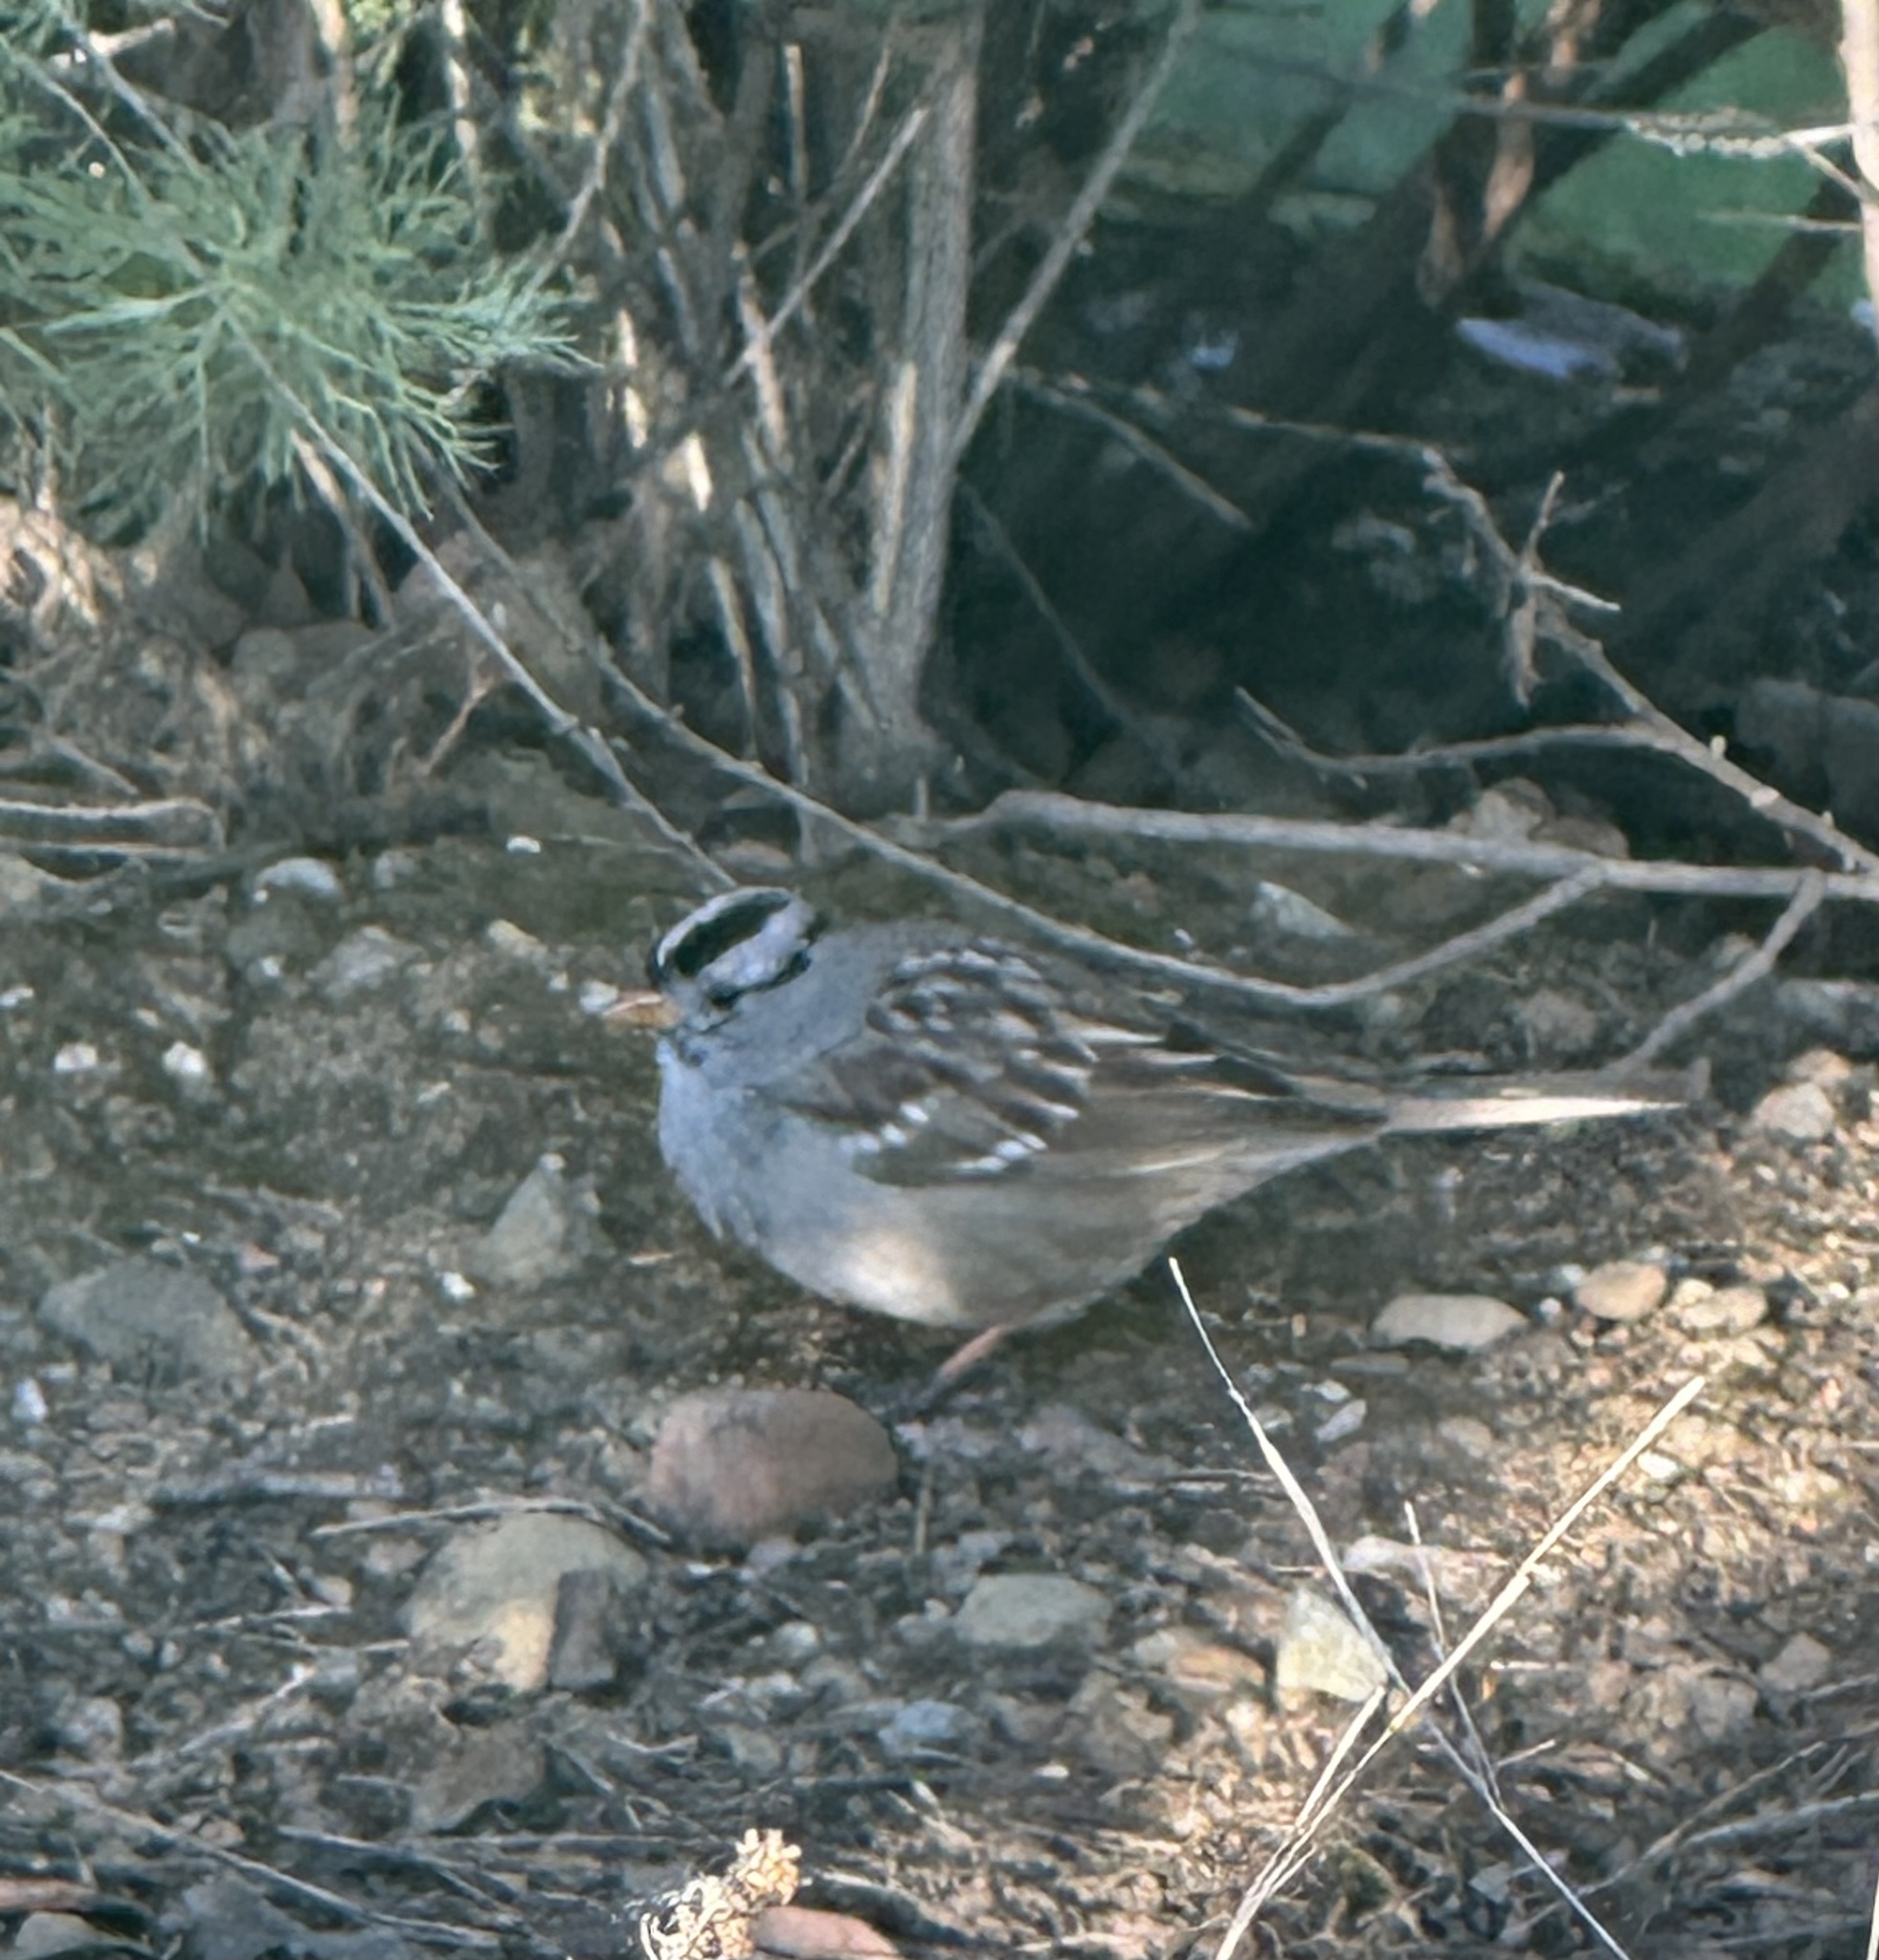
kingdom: Animalia
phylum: Chordata
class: Aves
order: Passeriformes
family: Passerellidae
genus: Zonotrichia
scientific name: Zonotrichia leucophrys
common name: White-crowned sparrow
